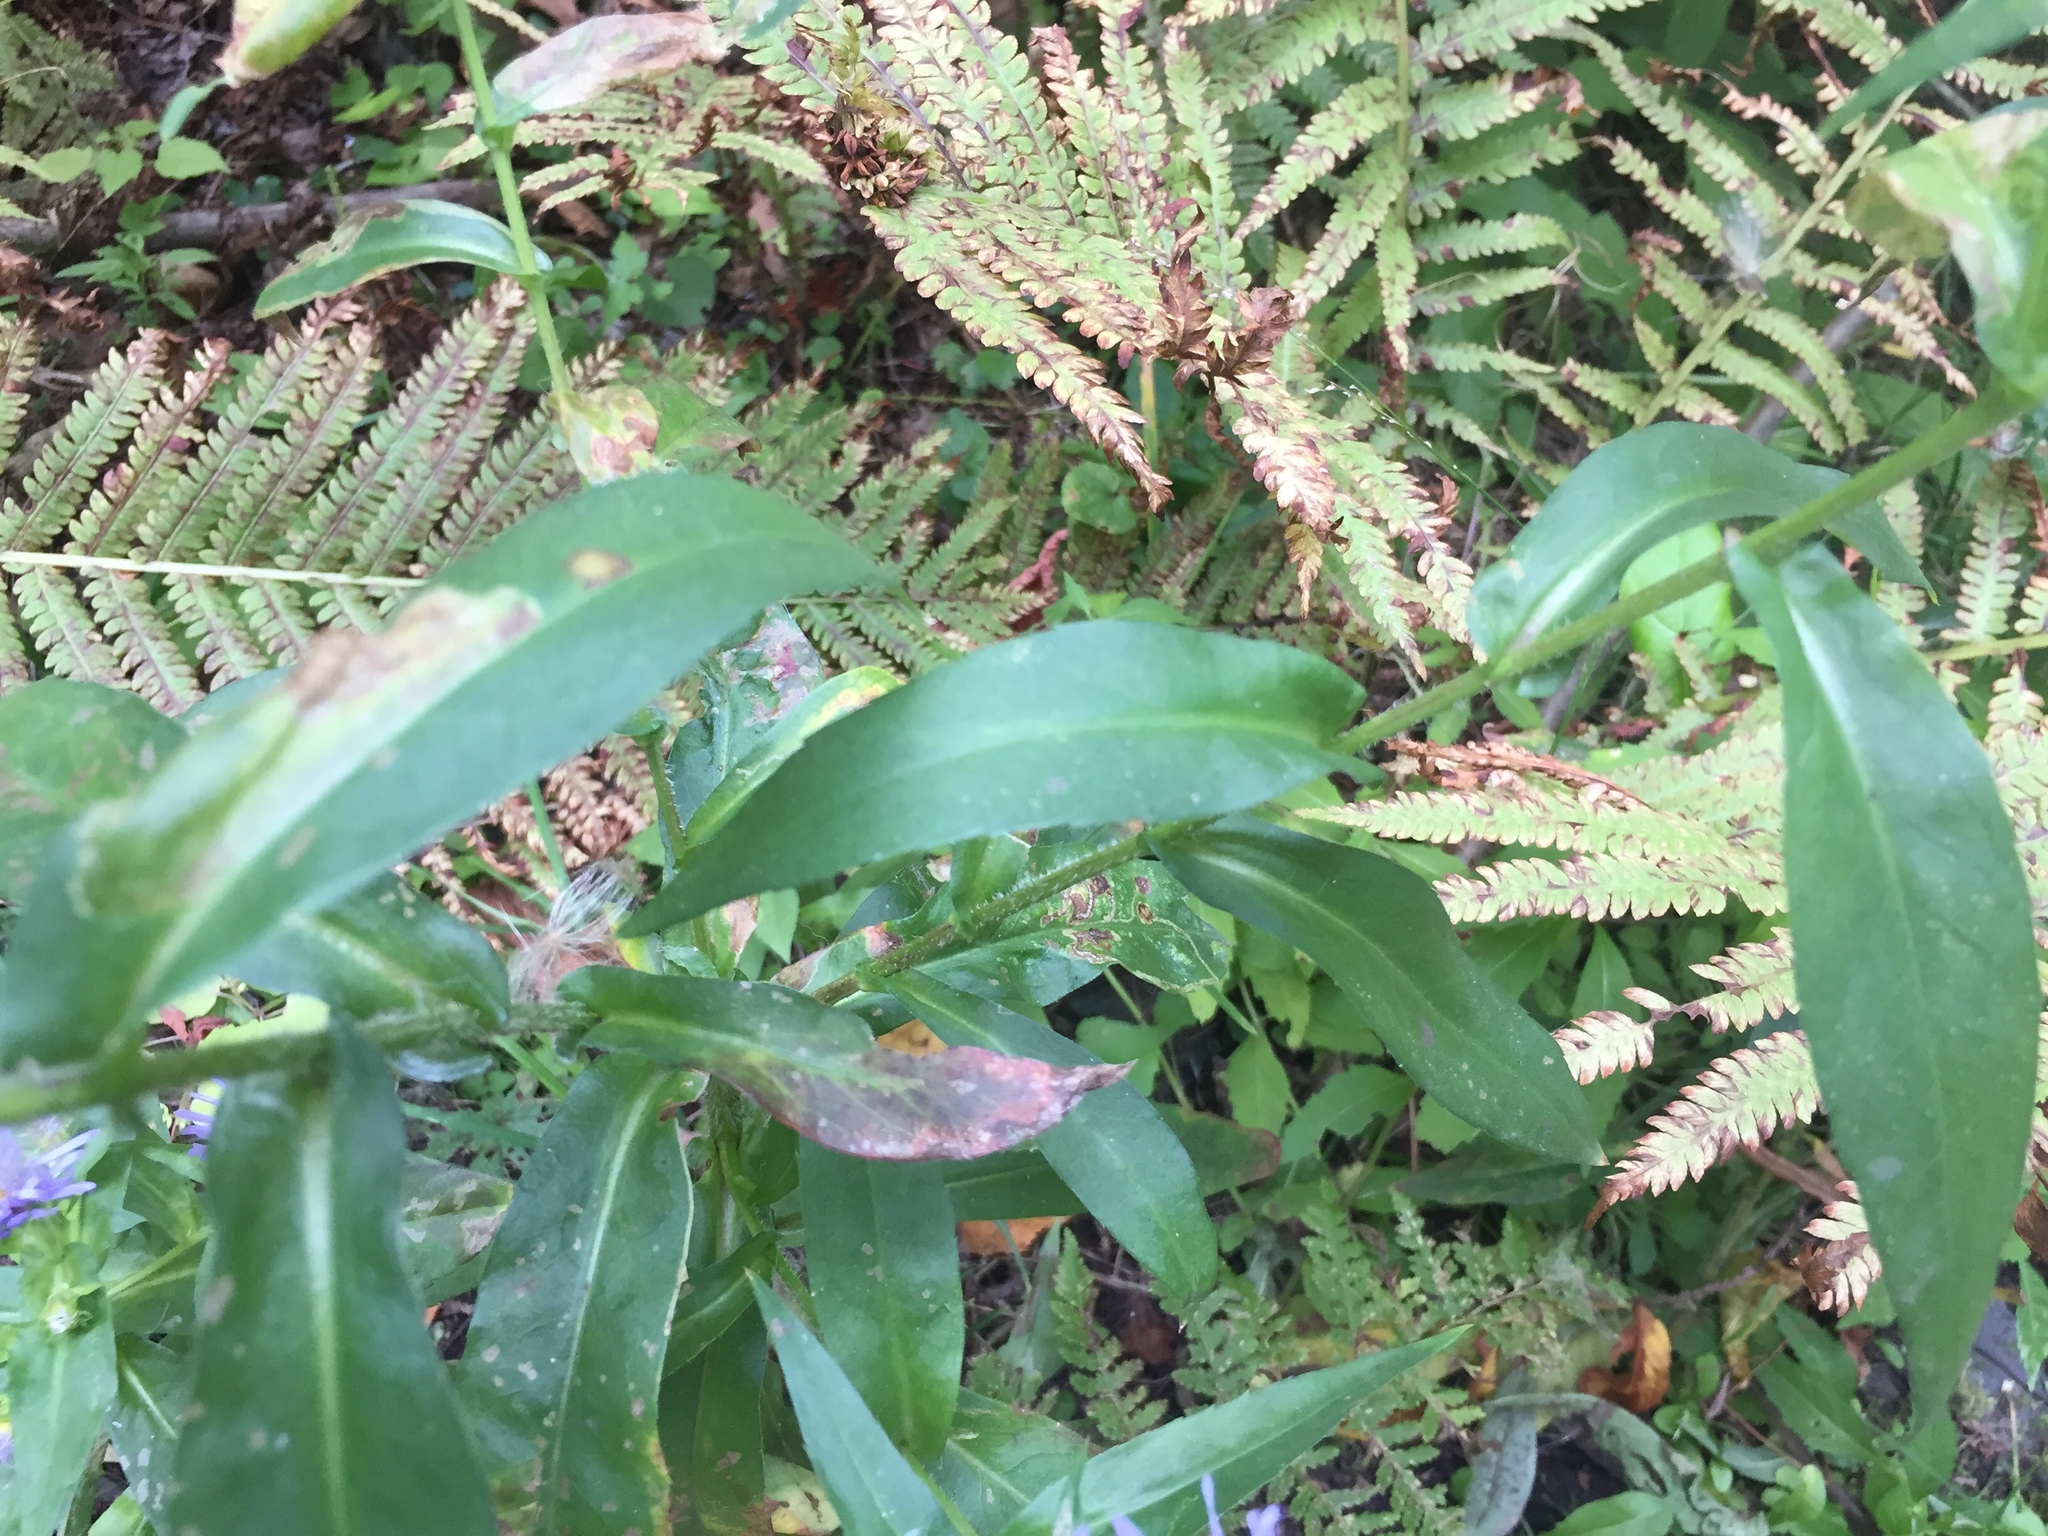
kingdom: Plantae
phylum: Tracheophyta
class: Magnoliopsida
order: Asterales
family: Asteraceae
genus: Symphyotrichum
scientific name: Symphyotrichum puniceum
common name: Bog aster
